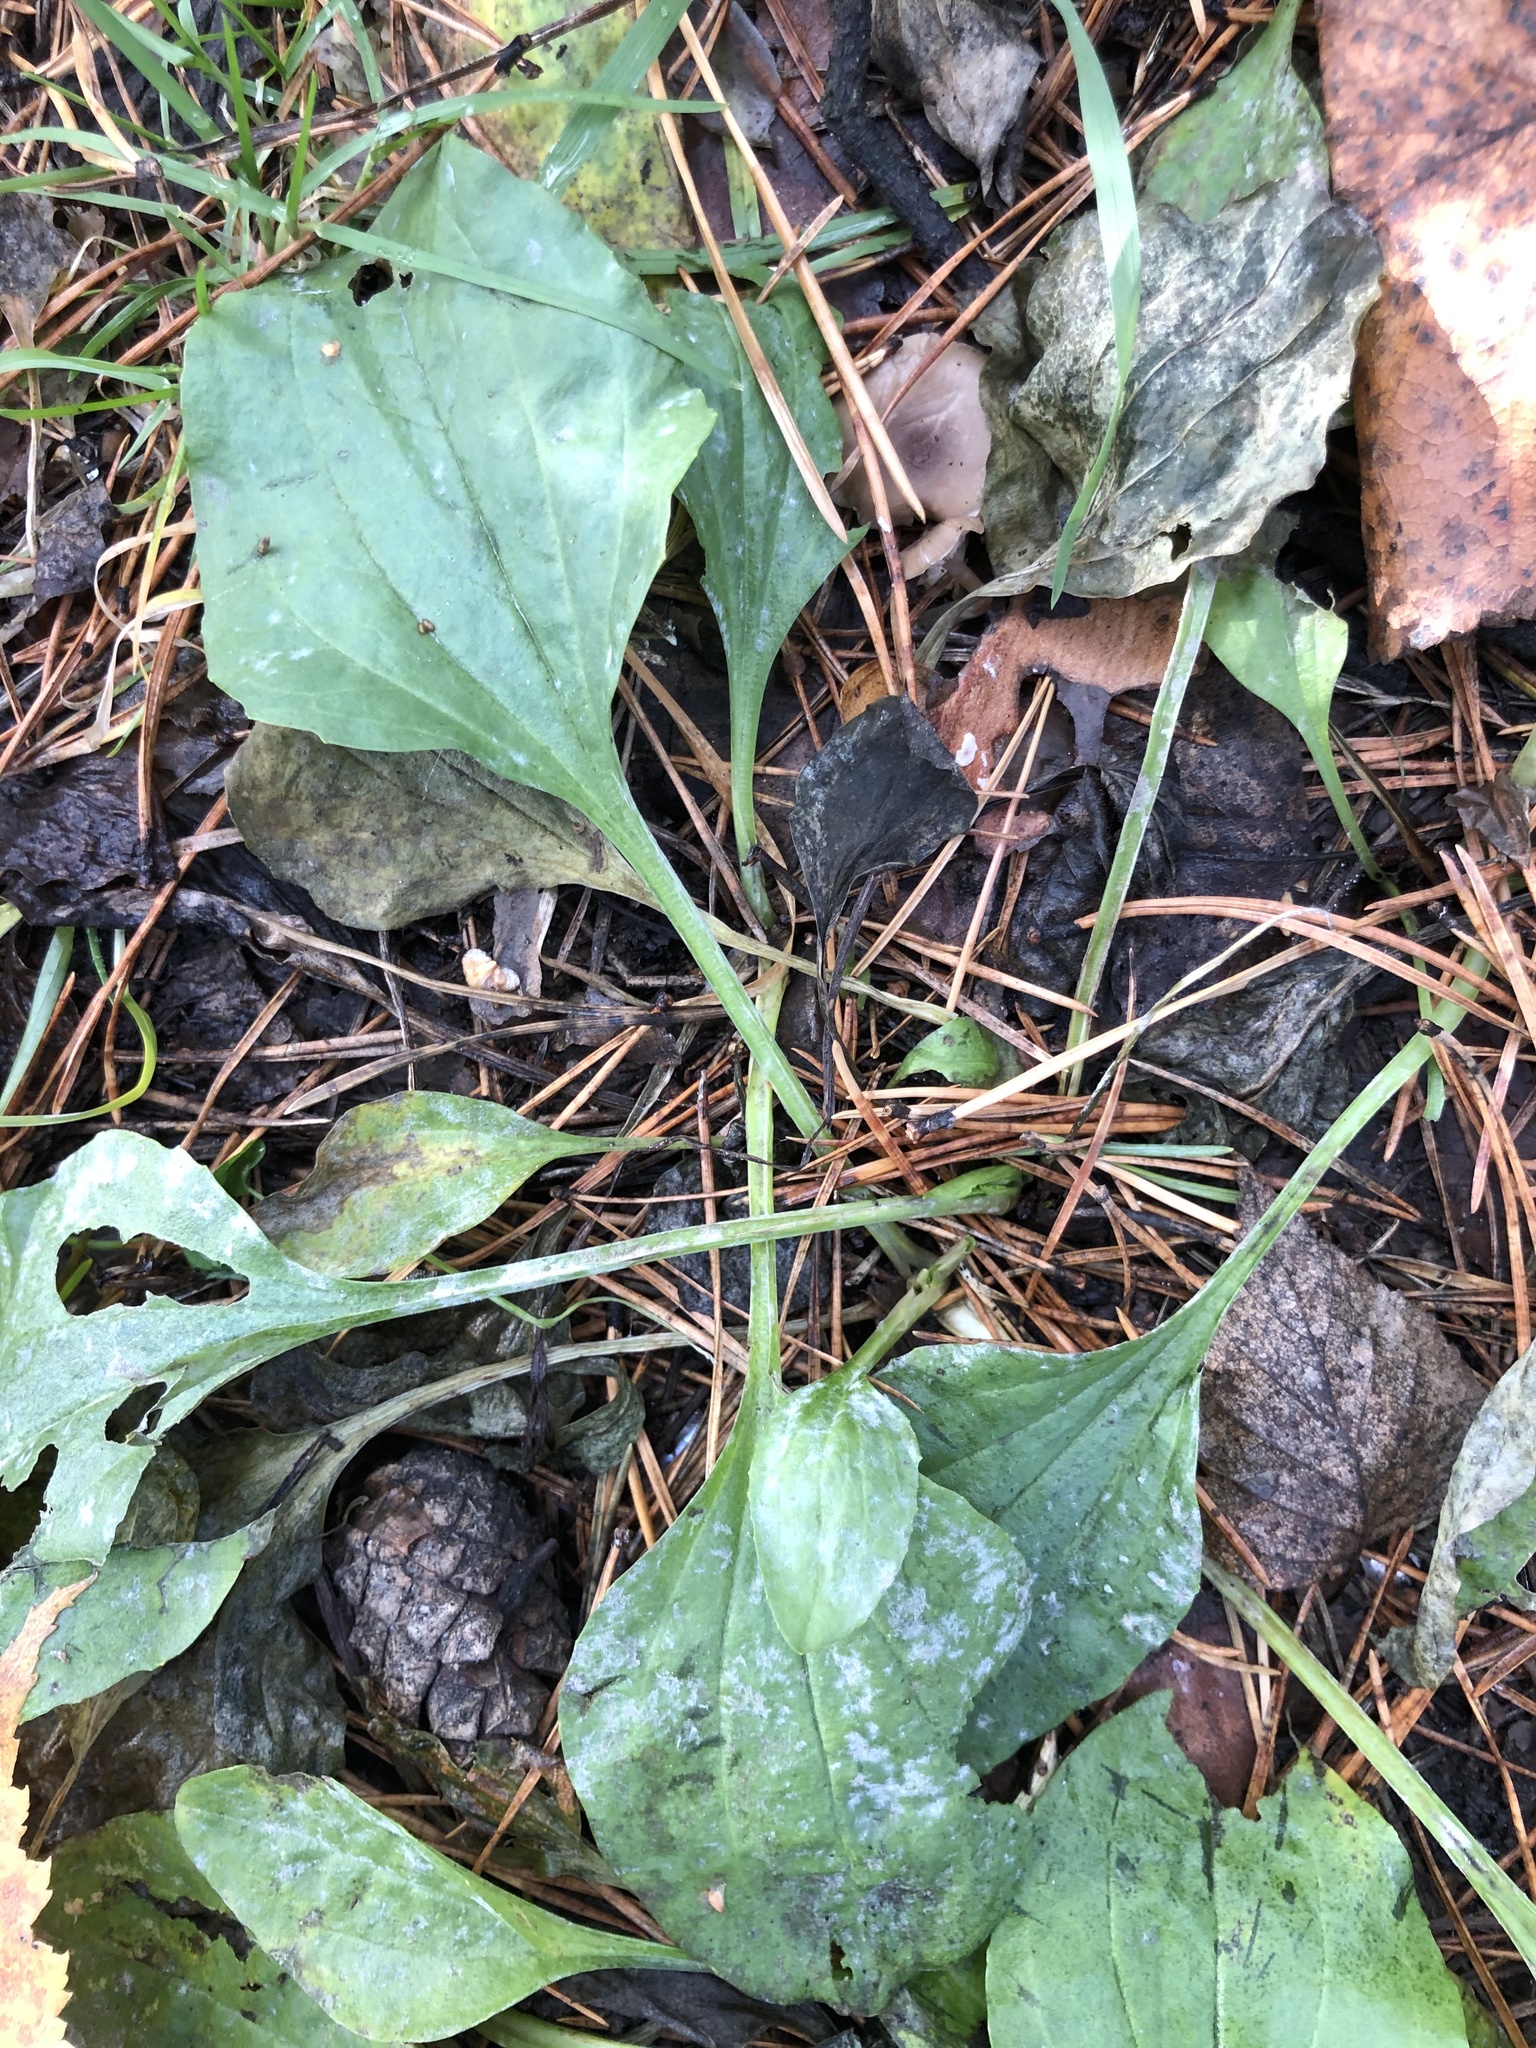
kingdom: Plantae
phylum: Tracheophyta
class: Magnoliopsida
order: Lamiales
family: Plantaginaceae
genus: Plantago
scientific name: Plantago major
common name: Common plantain
